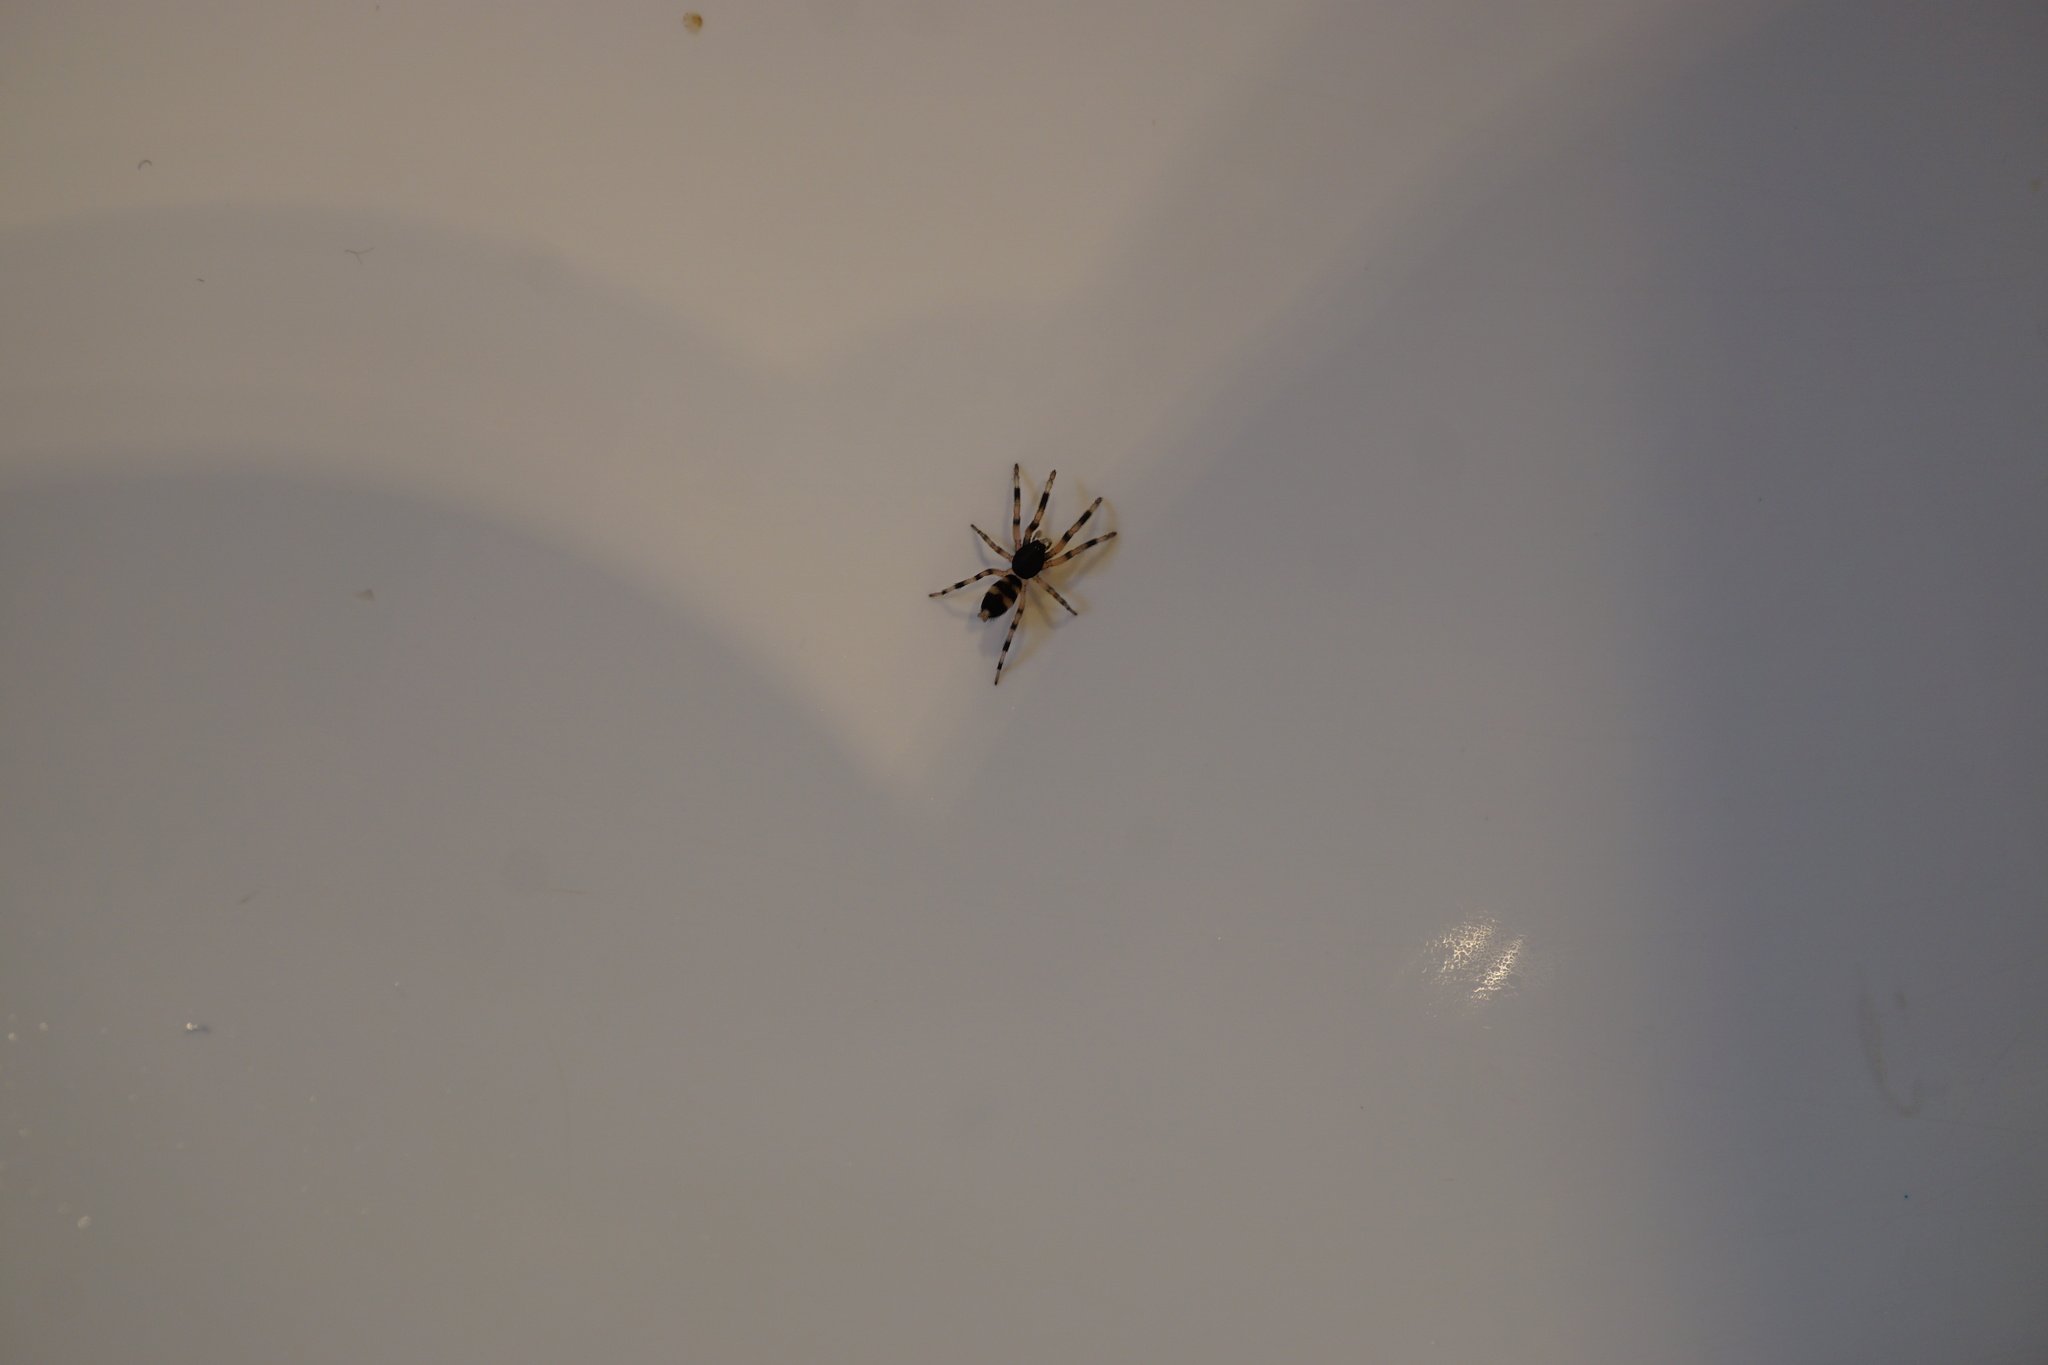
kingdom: Animalia
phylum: Arthropoda
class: Arachnida
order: Araneae
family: Lamponidae
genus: Lampona
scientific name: Lampona murina
